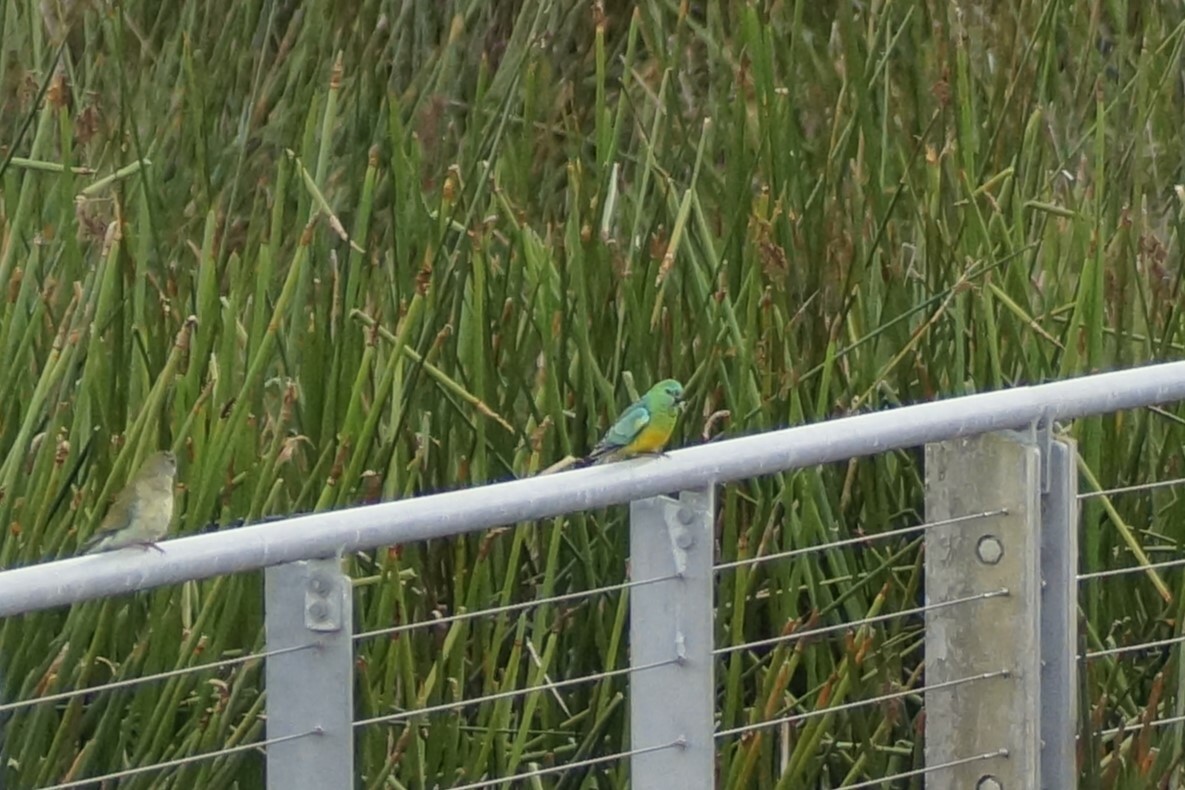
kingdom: Animalia
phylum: Chordata
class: Aves
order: Psittaciformes
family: Psittacidae
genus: Psephotus
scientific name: Psephotus haematonotus
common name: Red-rumped parrot
